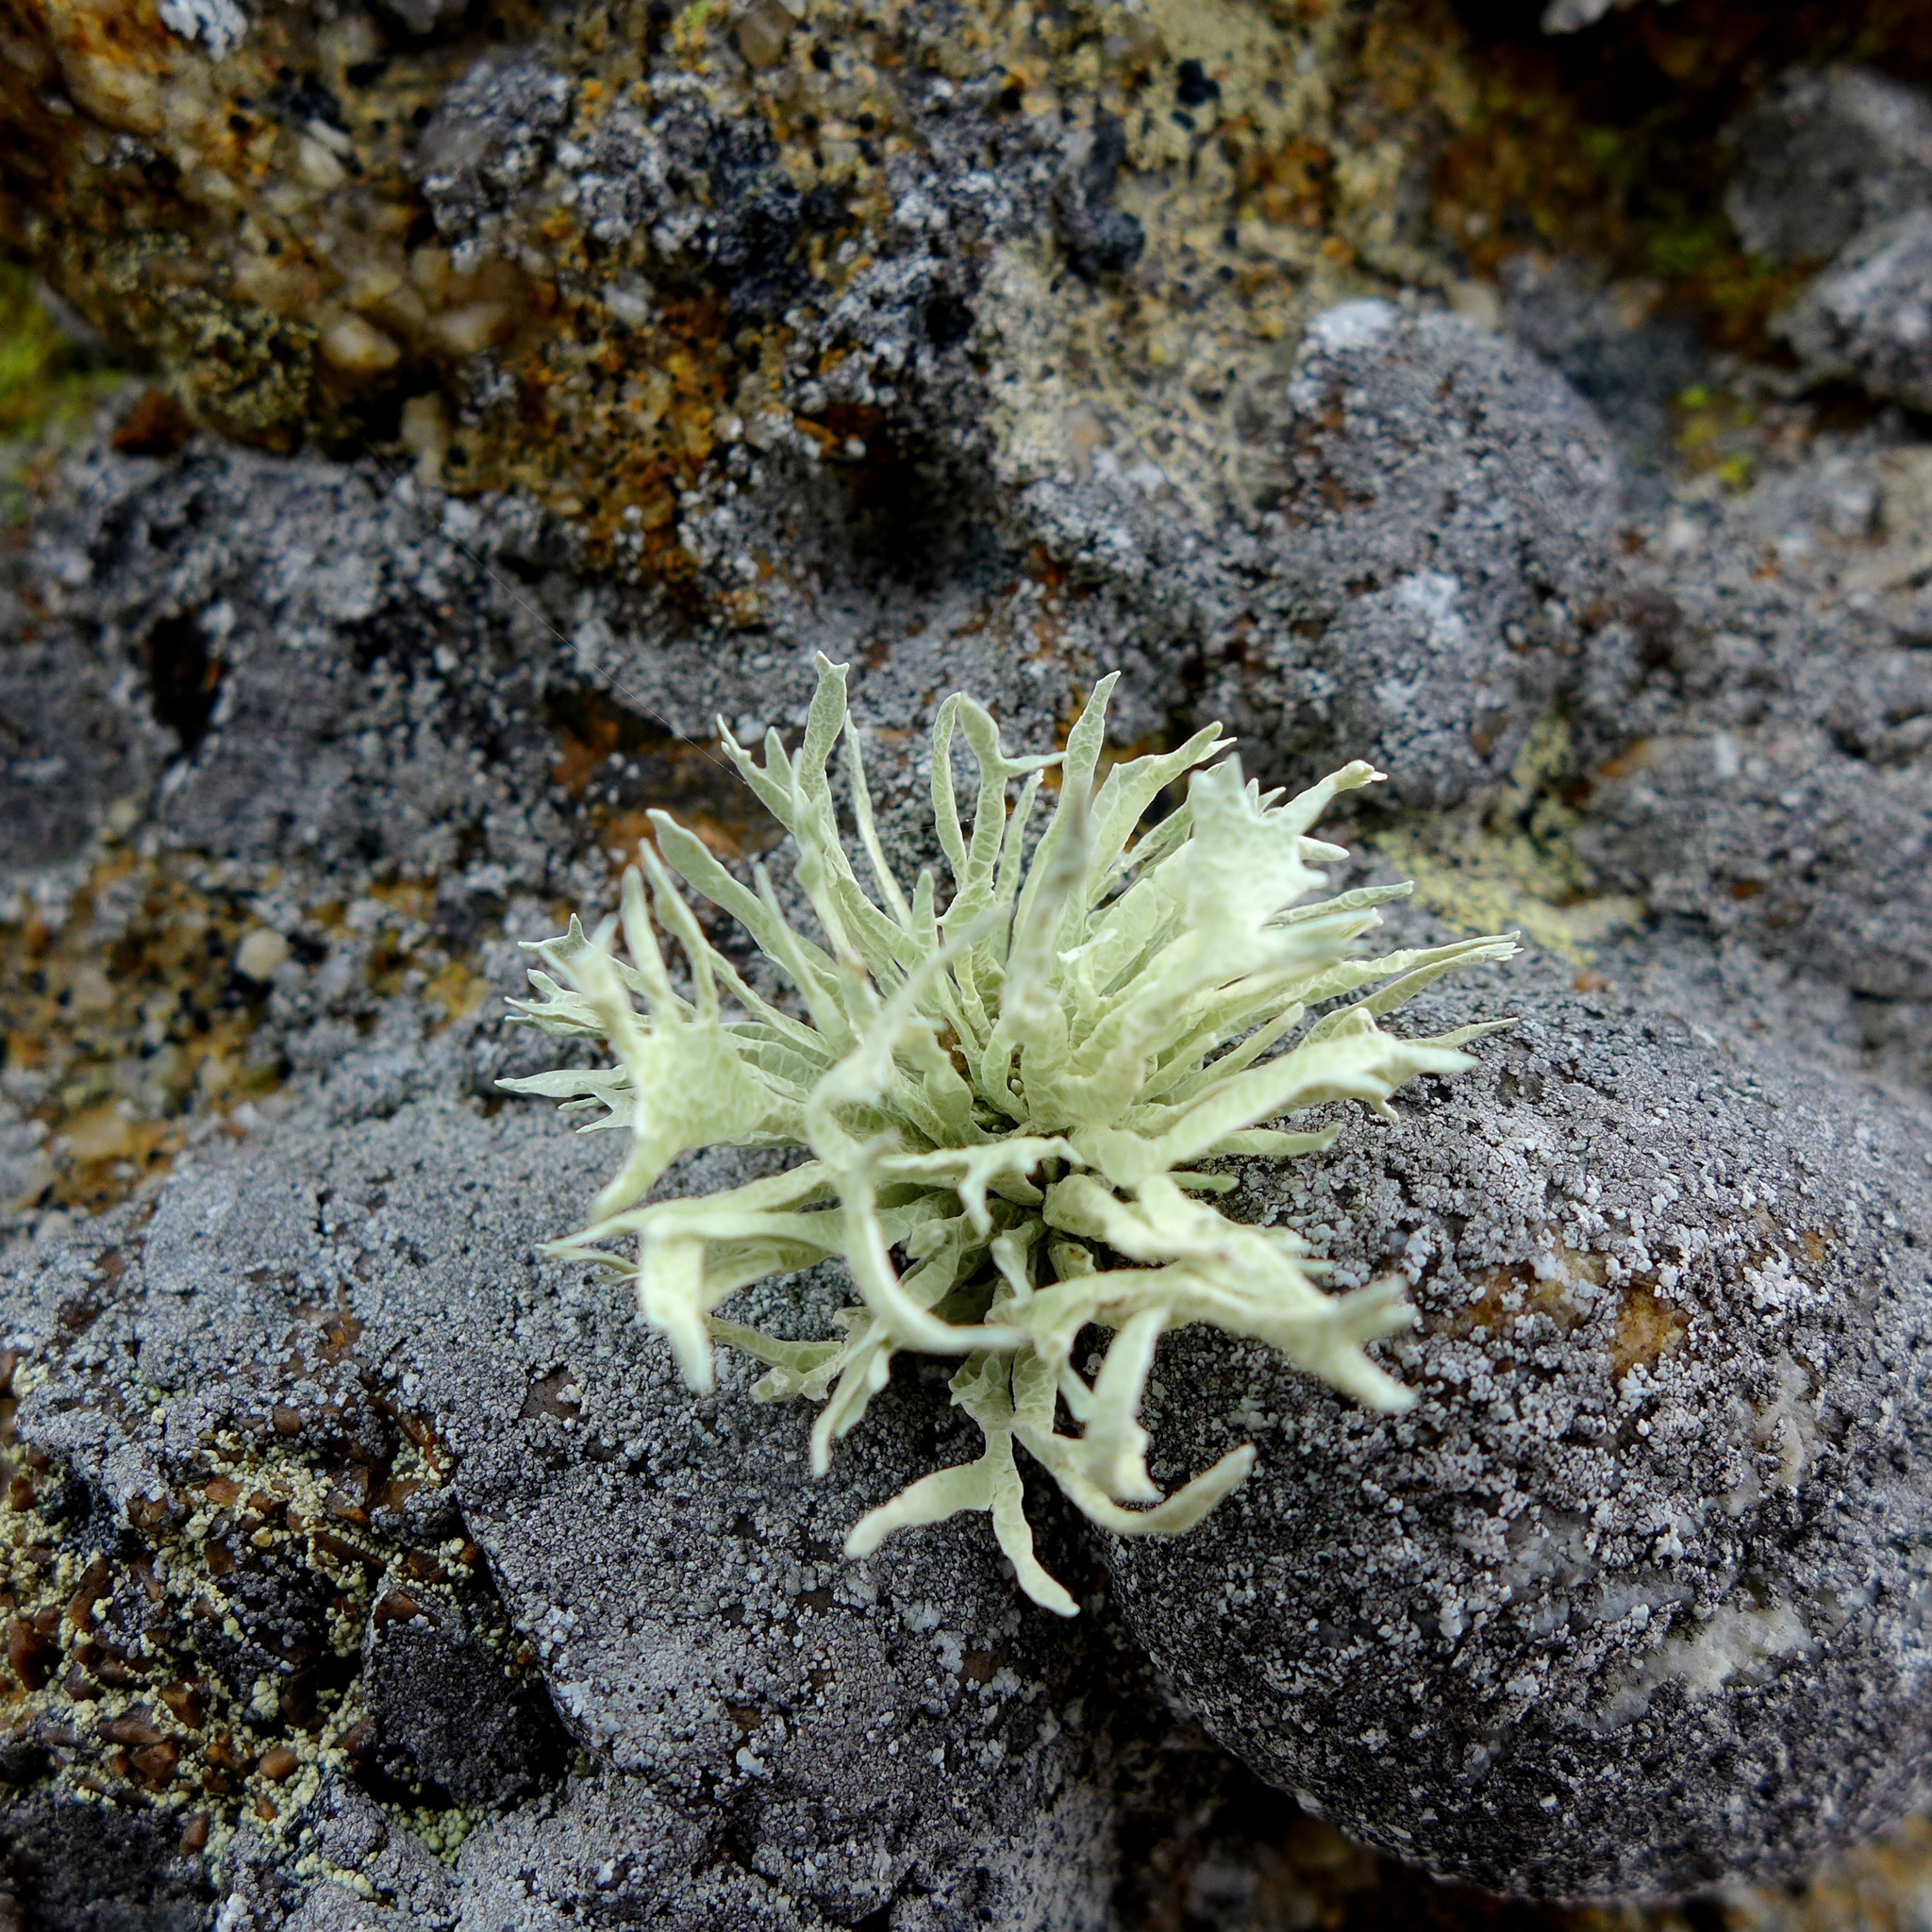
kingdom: Fungi
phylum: Ascomycota
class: Lecanoromycetes
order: Lecanorales
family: Ramalinaceae
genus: Niebla
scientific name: Niebla homalea
